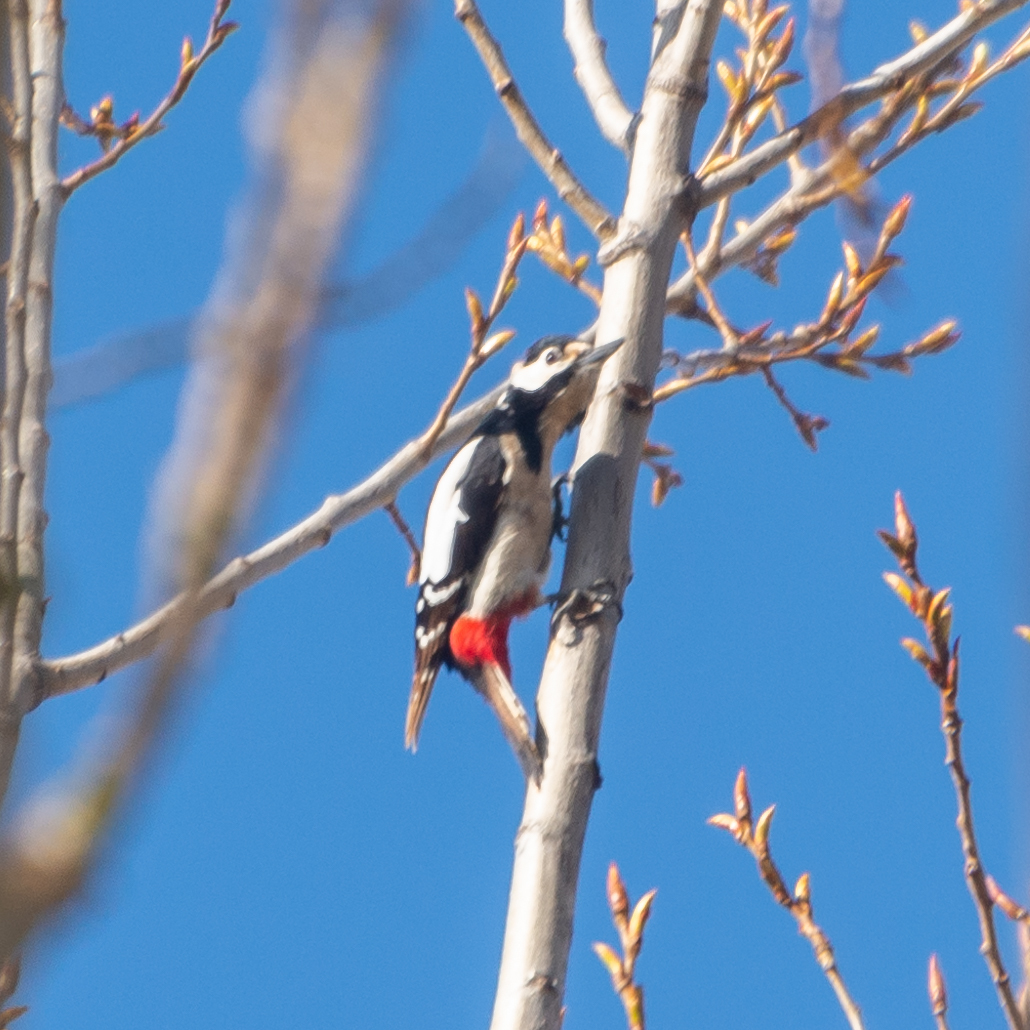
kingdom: Animalia
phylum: Chordata
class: Aves
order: Piciformes
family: Picidae
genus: Dendrocopos
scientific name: Dendrocopos major
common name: Great spotted woodpecker
